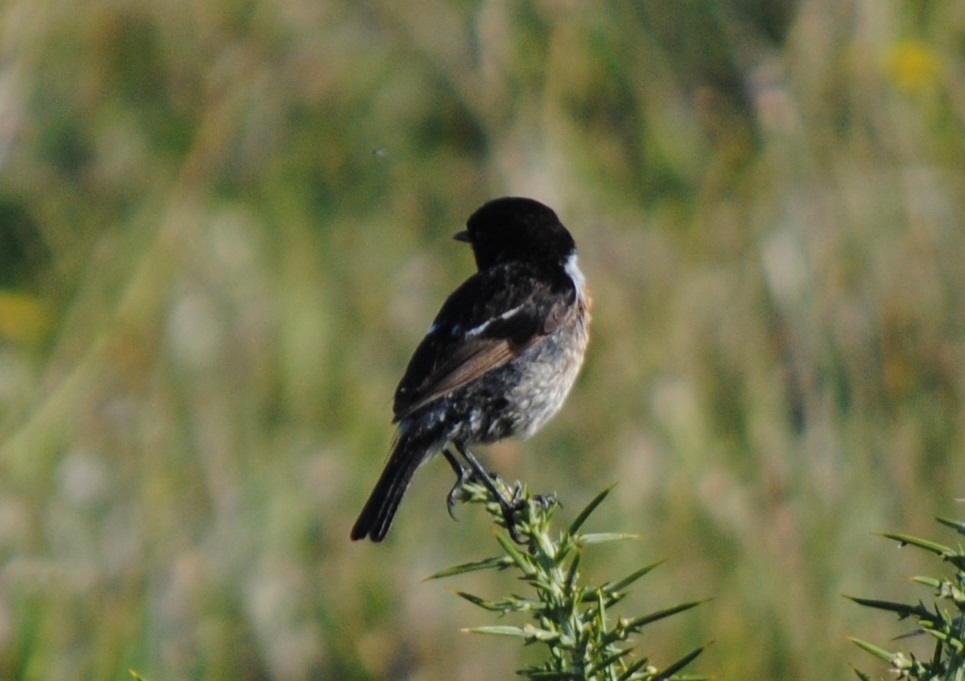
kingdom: Animalia
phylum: Chordata
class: Aves
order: Passeriformes
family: Muscicapidae
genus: Saxicola
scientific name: Saxicola rubicola
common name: European stonechat
